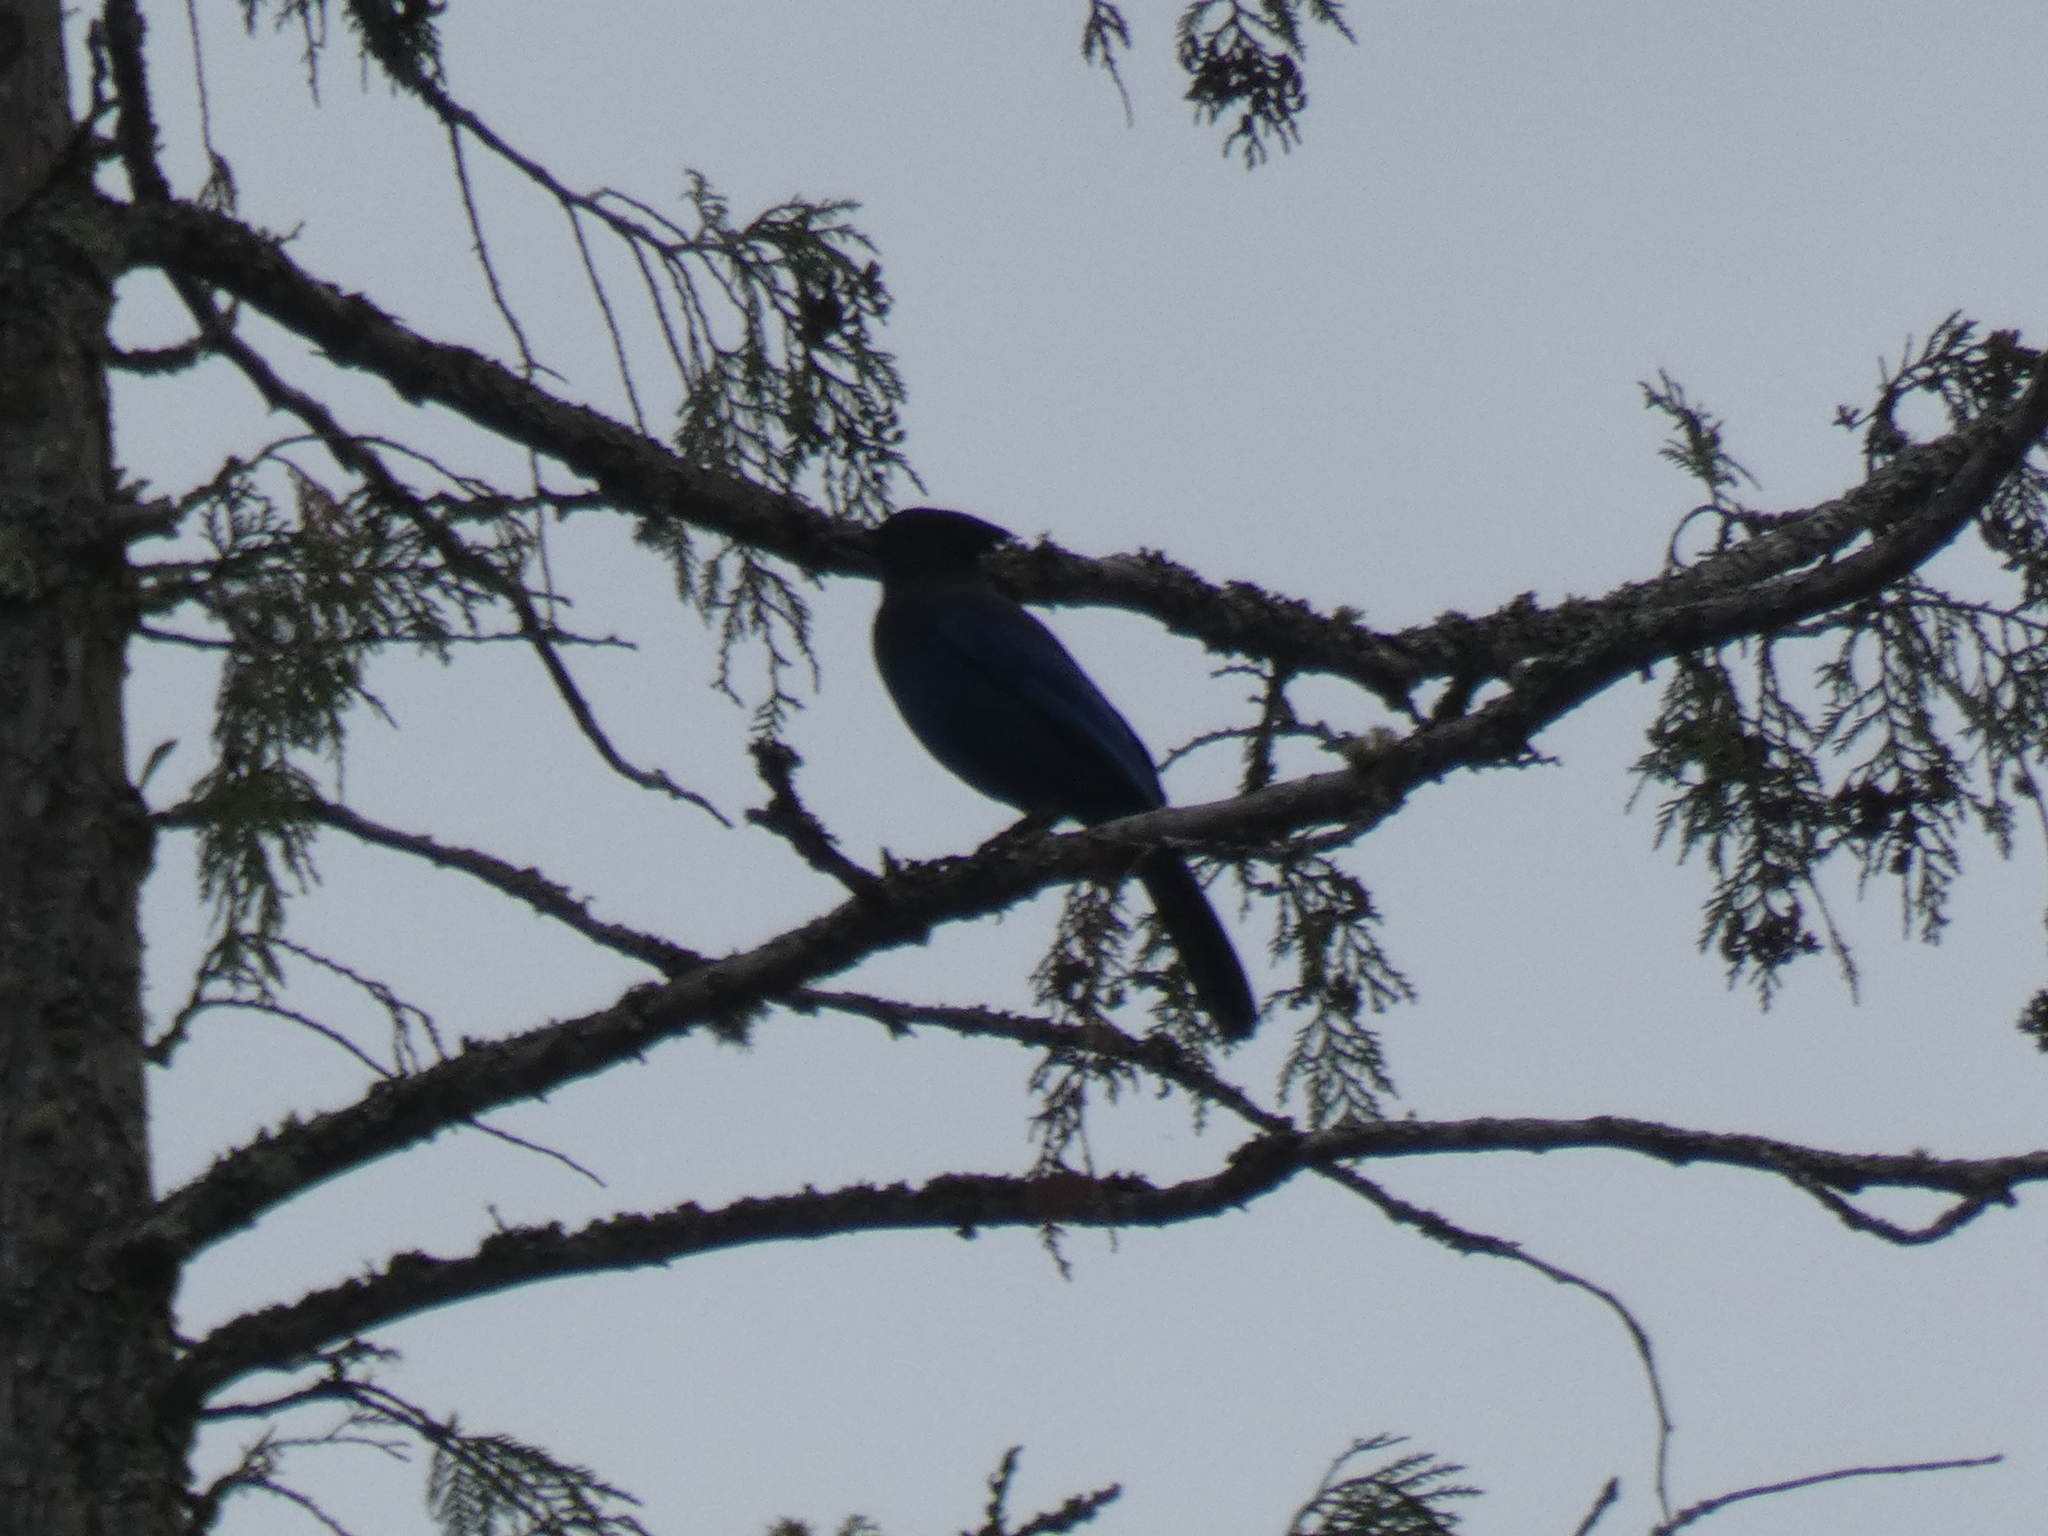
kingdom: Animalia
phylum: Chordata
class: Aves
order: Passeriformes
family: Corvidae
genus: Cyanocitta
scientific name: Cyanocitta stelleri
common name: Steller's jay
